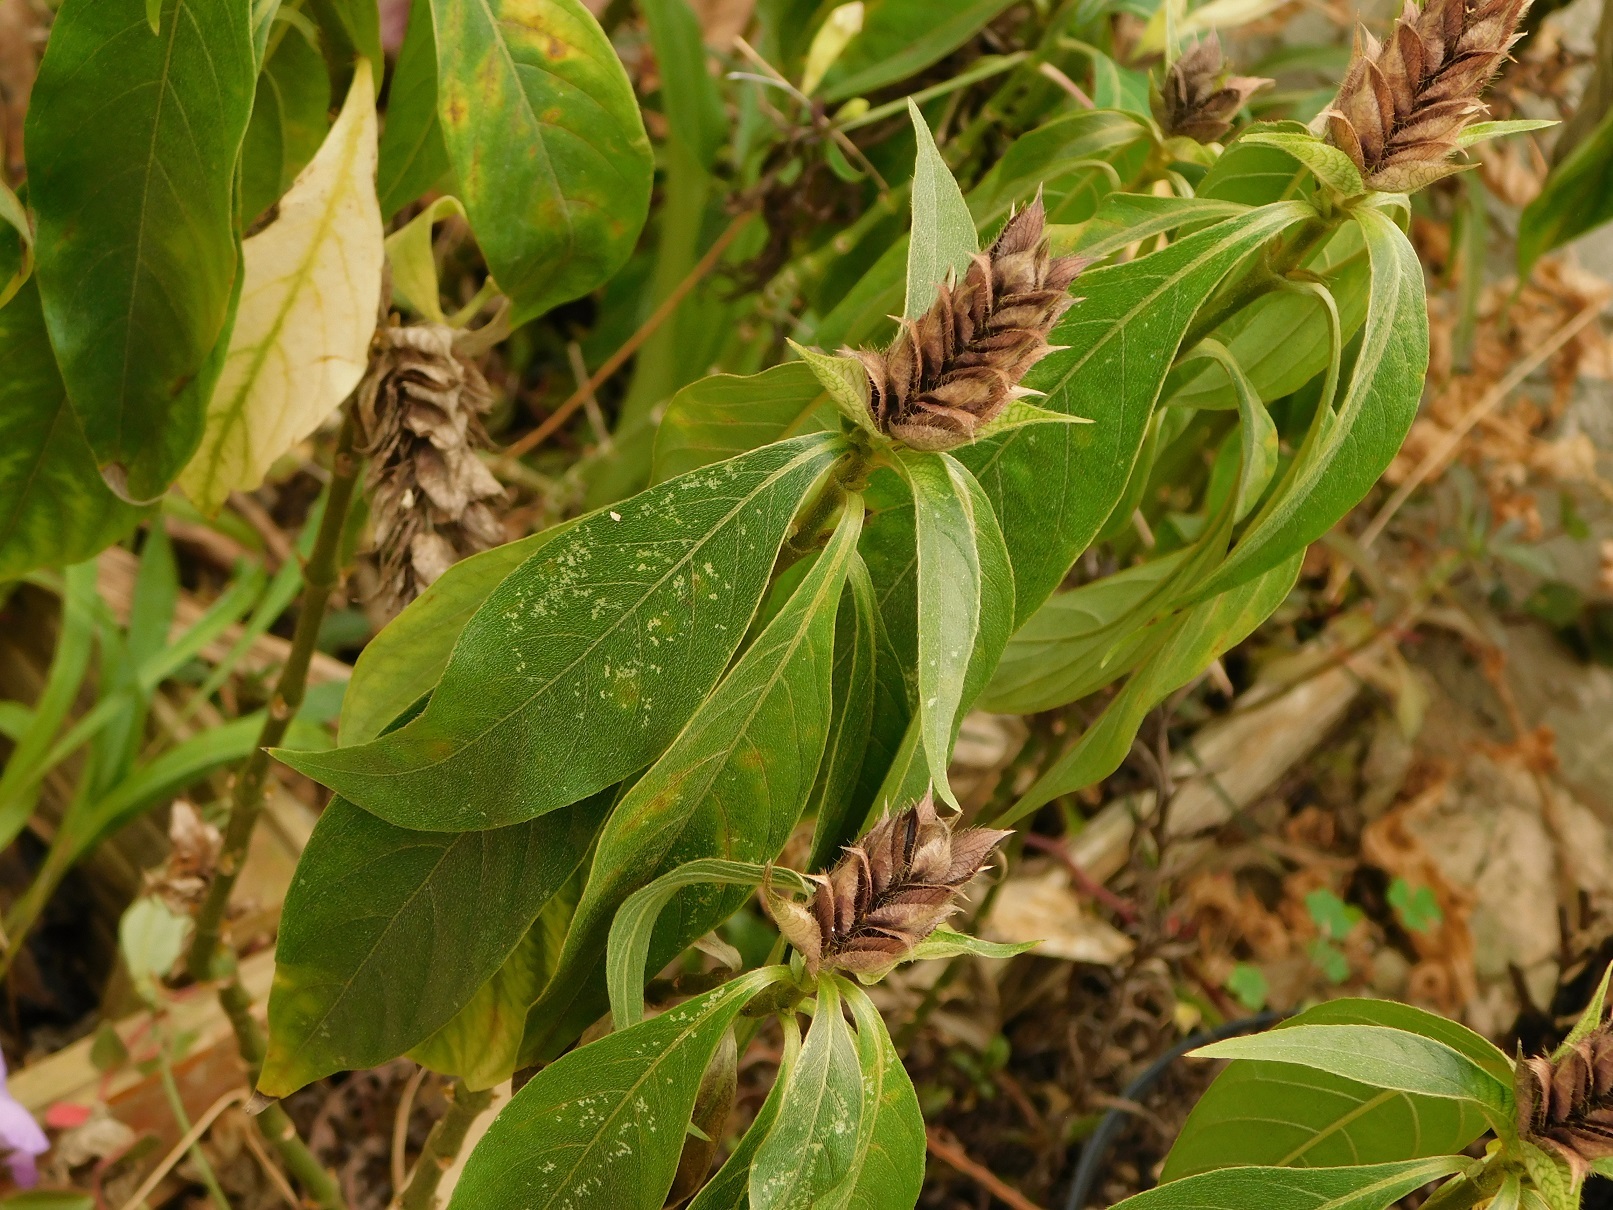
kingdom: Plantae
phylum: Tracheophyta
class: Magnoliopsida
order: Lamiales
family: Acanthaceae
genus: Barleria
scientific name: Barleria oenotheroides
